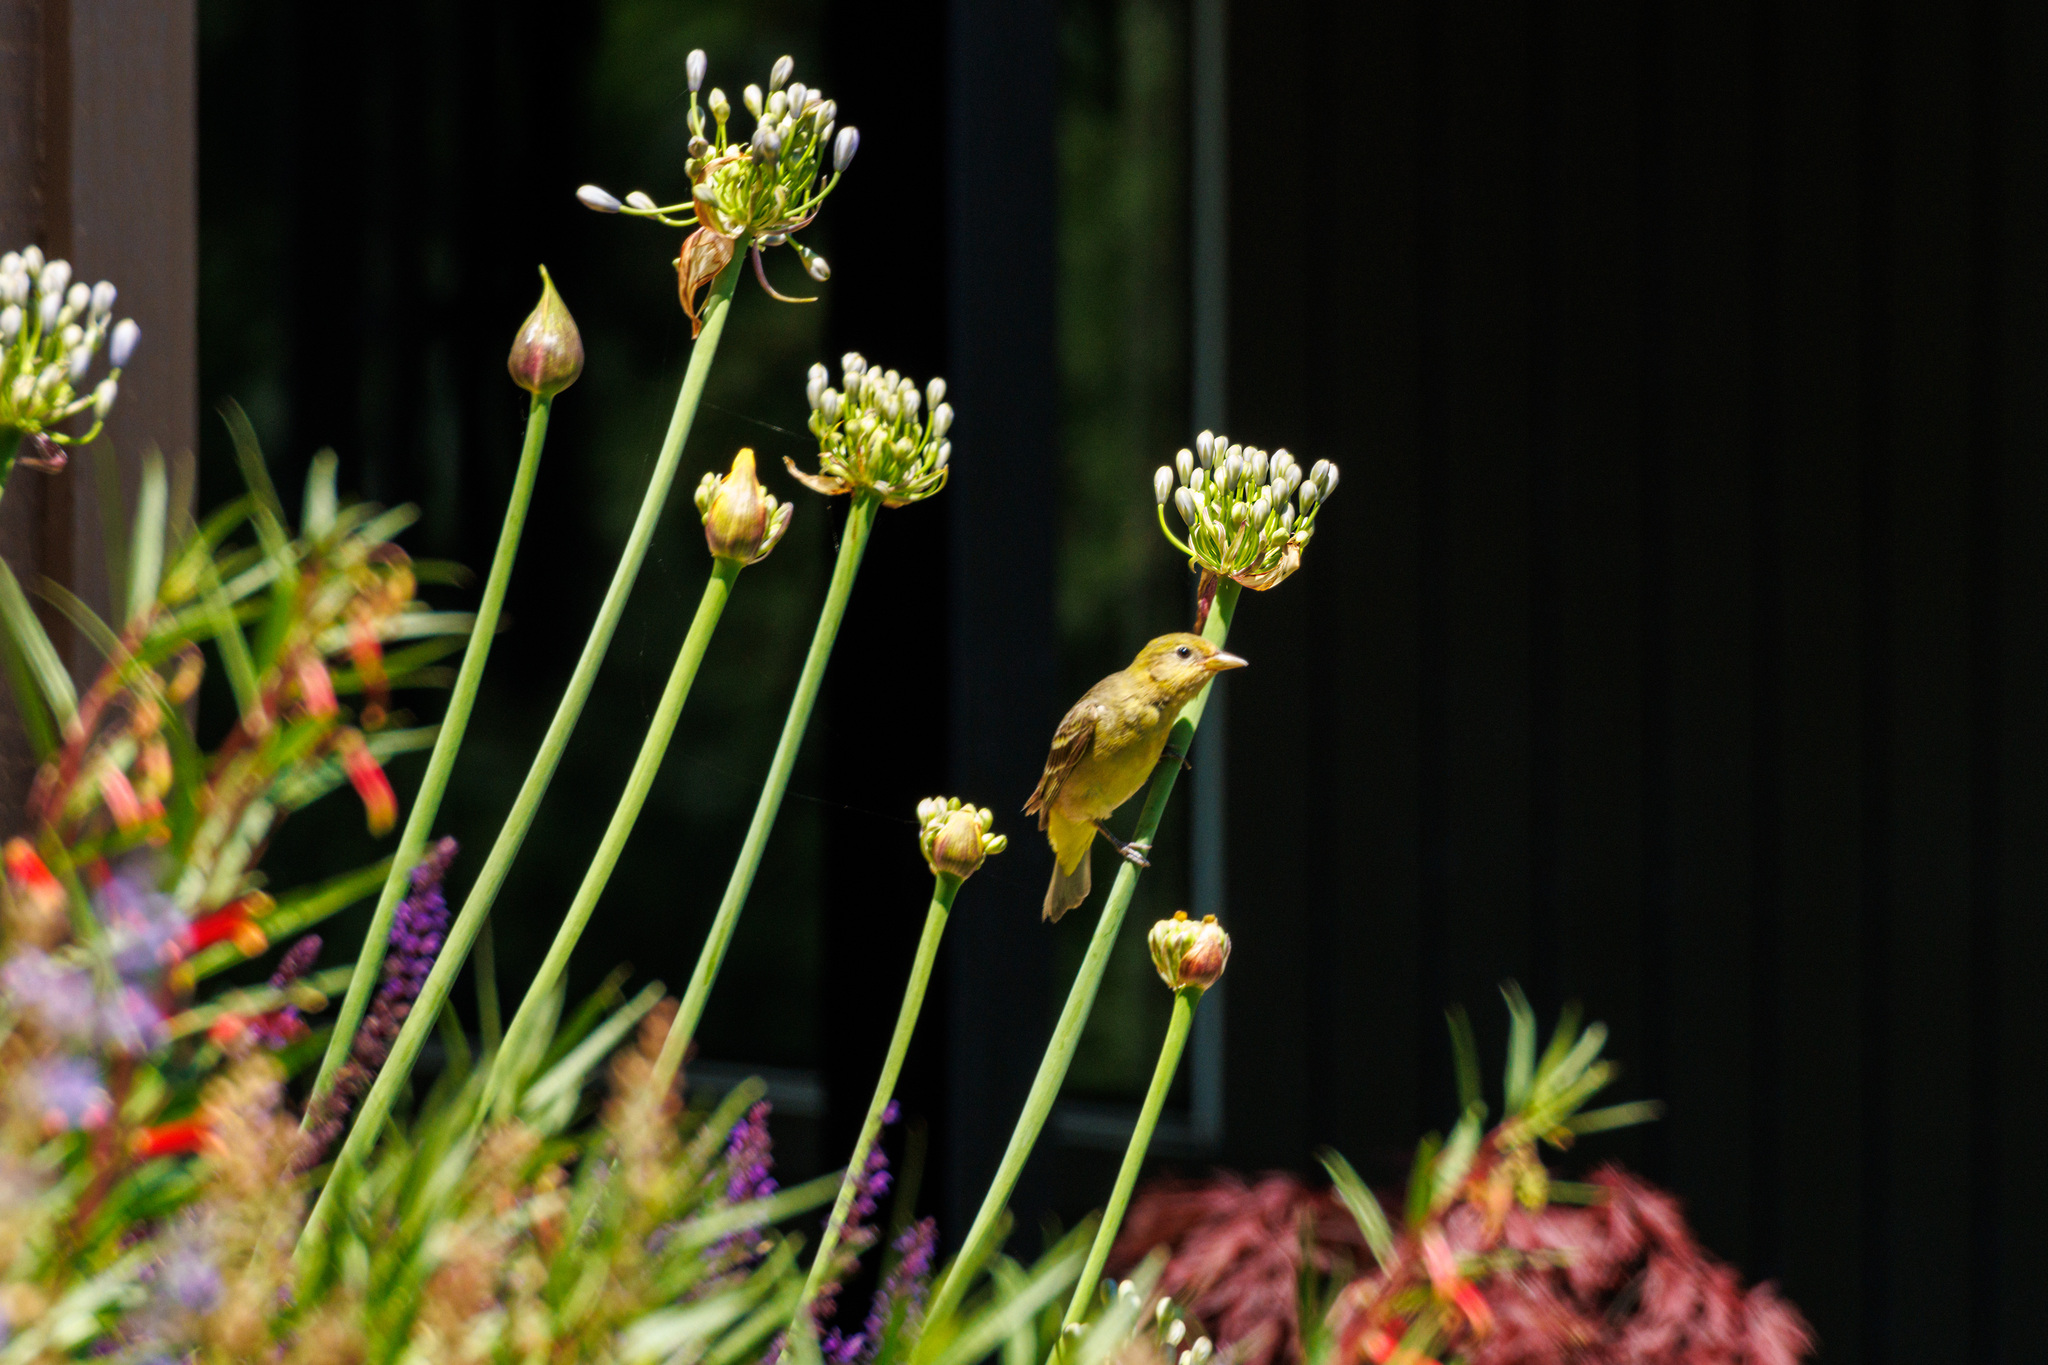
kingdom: Animalia
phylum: Chordata
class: Aves
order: Passeriformes
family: Cardinalidae
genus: Piranga
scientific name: Piranga ludoviciana
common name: Western tanager
